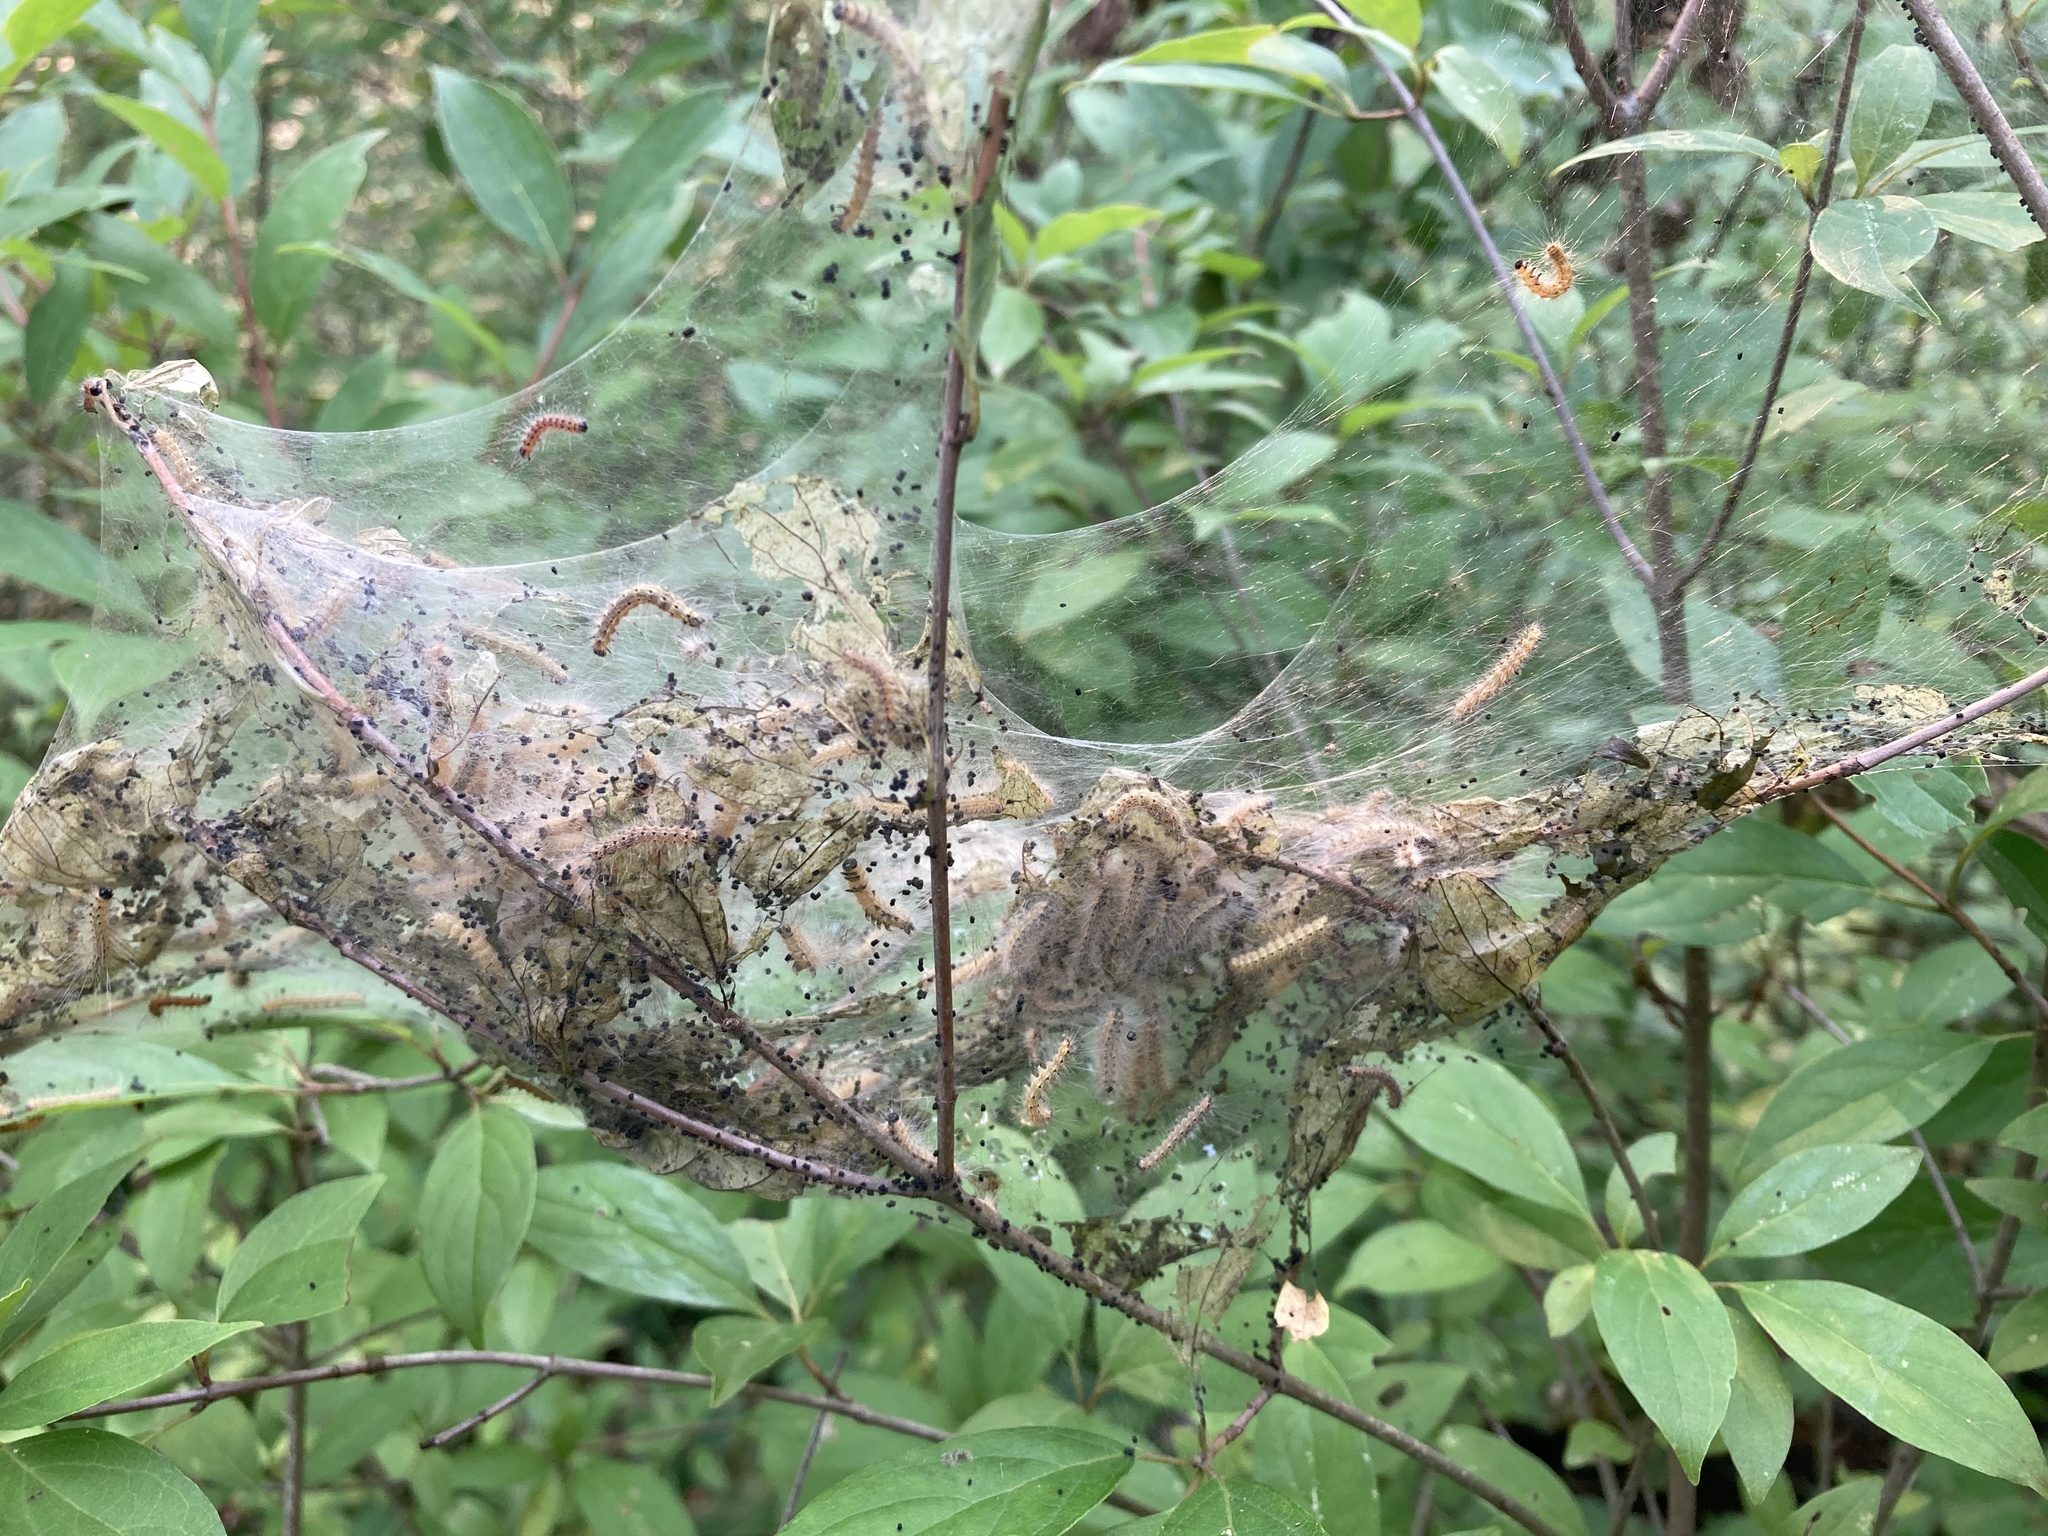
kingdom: Animalia
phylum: Arthropoda
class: Insecta
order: Lepidoptera
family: Erebidae
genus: Hyphantria
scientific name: Hyphantria cunea
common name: American white moth
